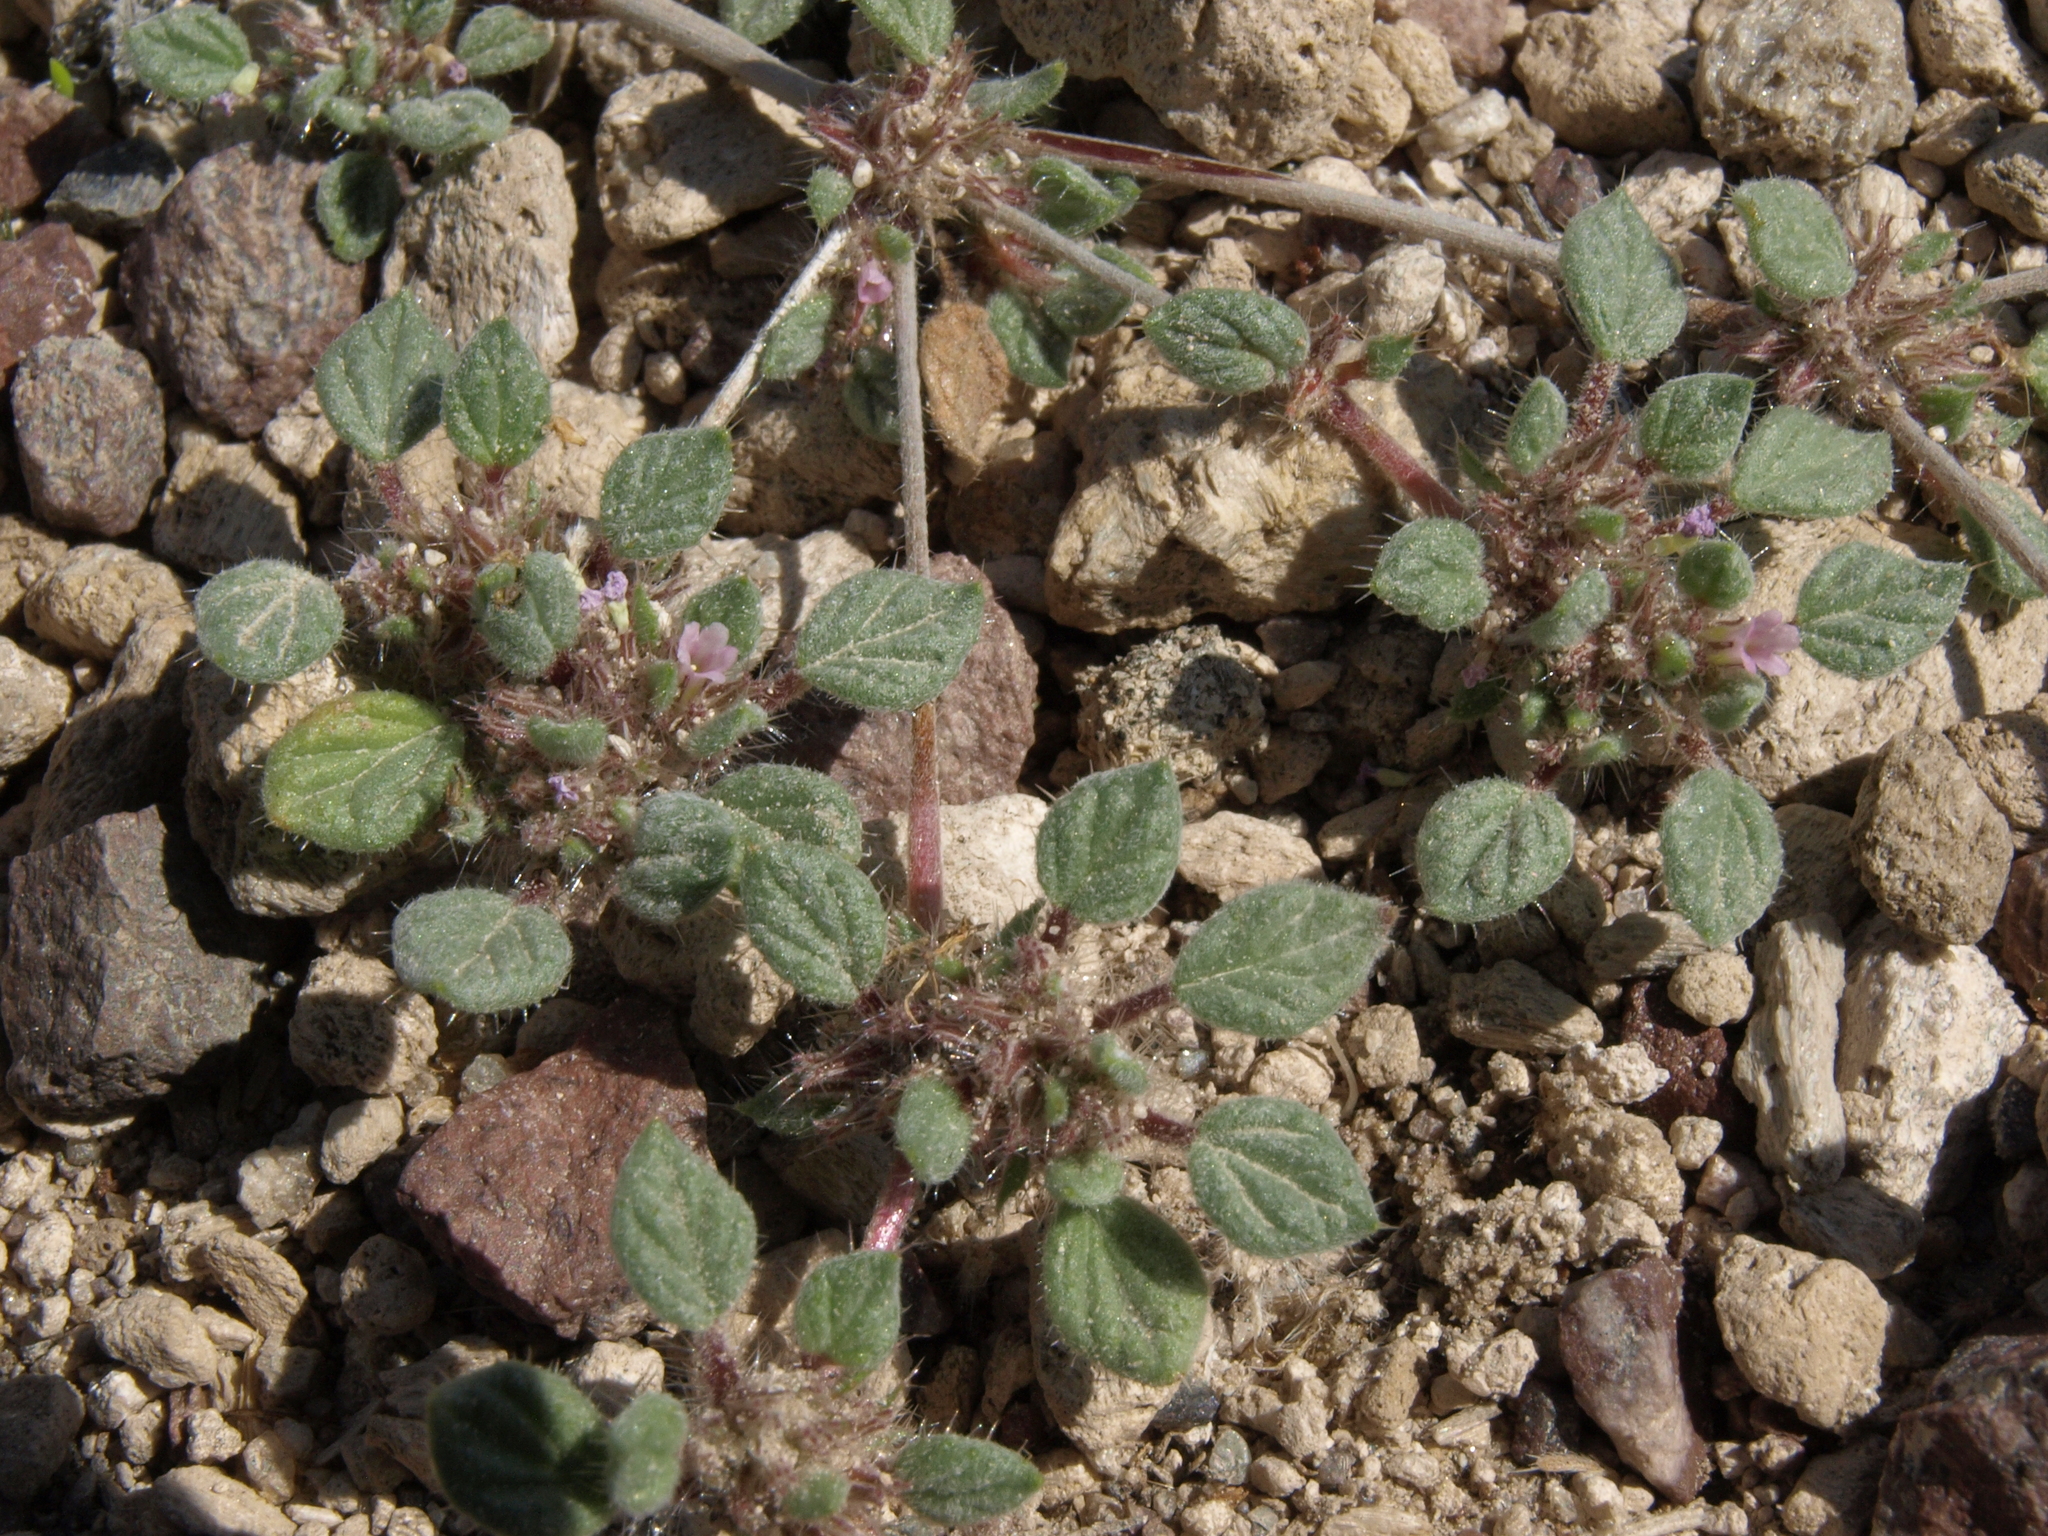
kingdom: Plantae
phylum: Tracheophyta
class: Magnoliopsida
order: Boraginales
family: Ehretiaceae
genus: Tiquilia
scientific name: Tiquilia nuttallii
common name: Rosette tiquilia
